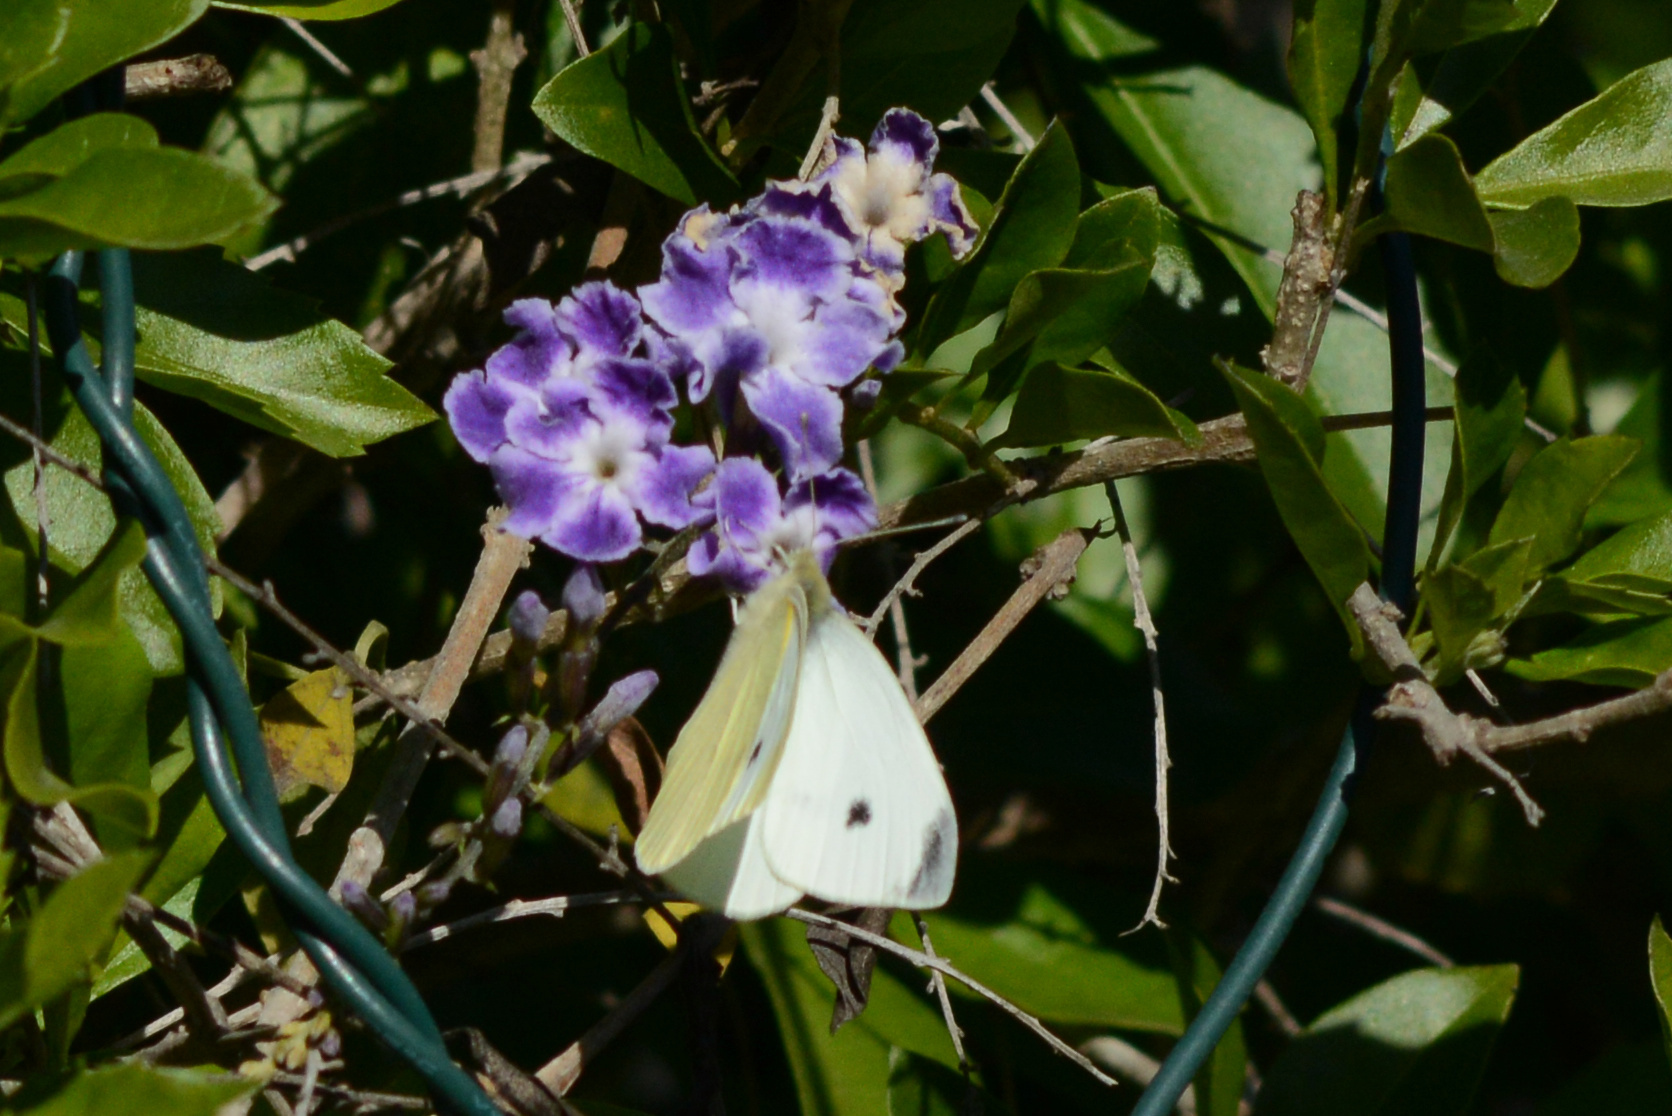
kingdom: Animalia
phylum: Arthropoda
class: Insecta
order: Lepidoptera
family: Pieridae
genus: Pieris
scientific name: Pieris rapae
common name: Small white
